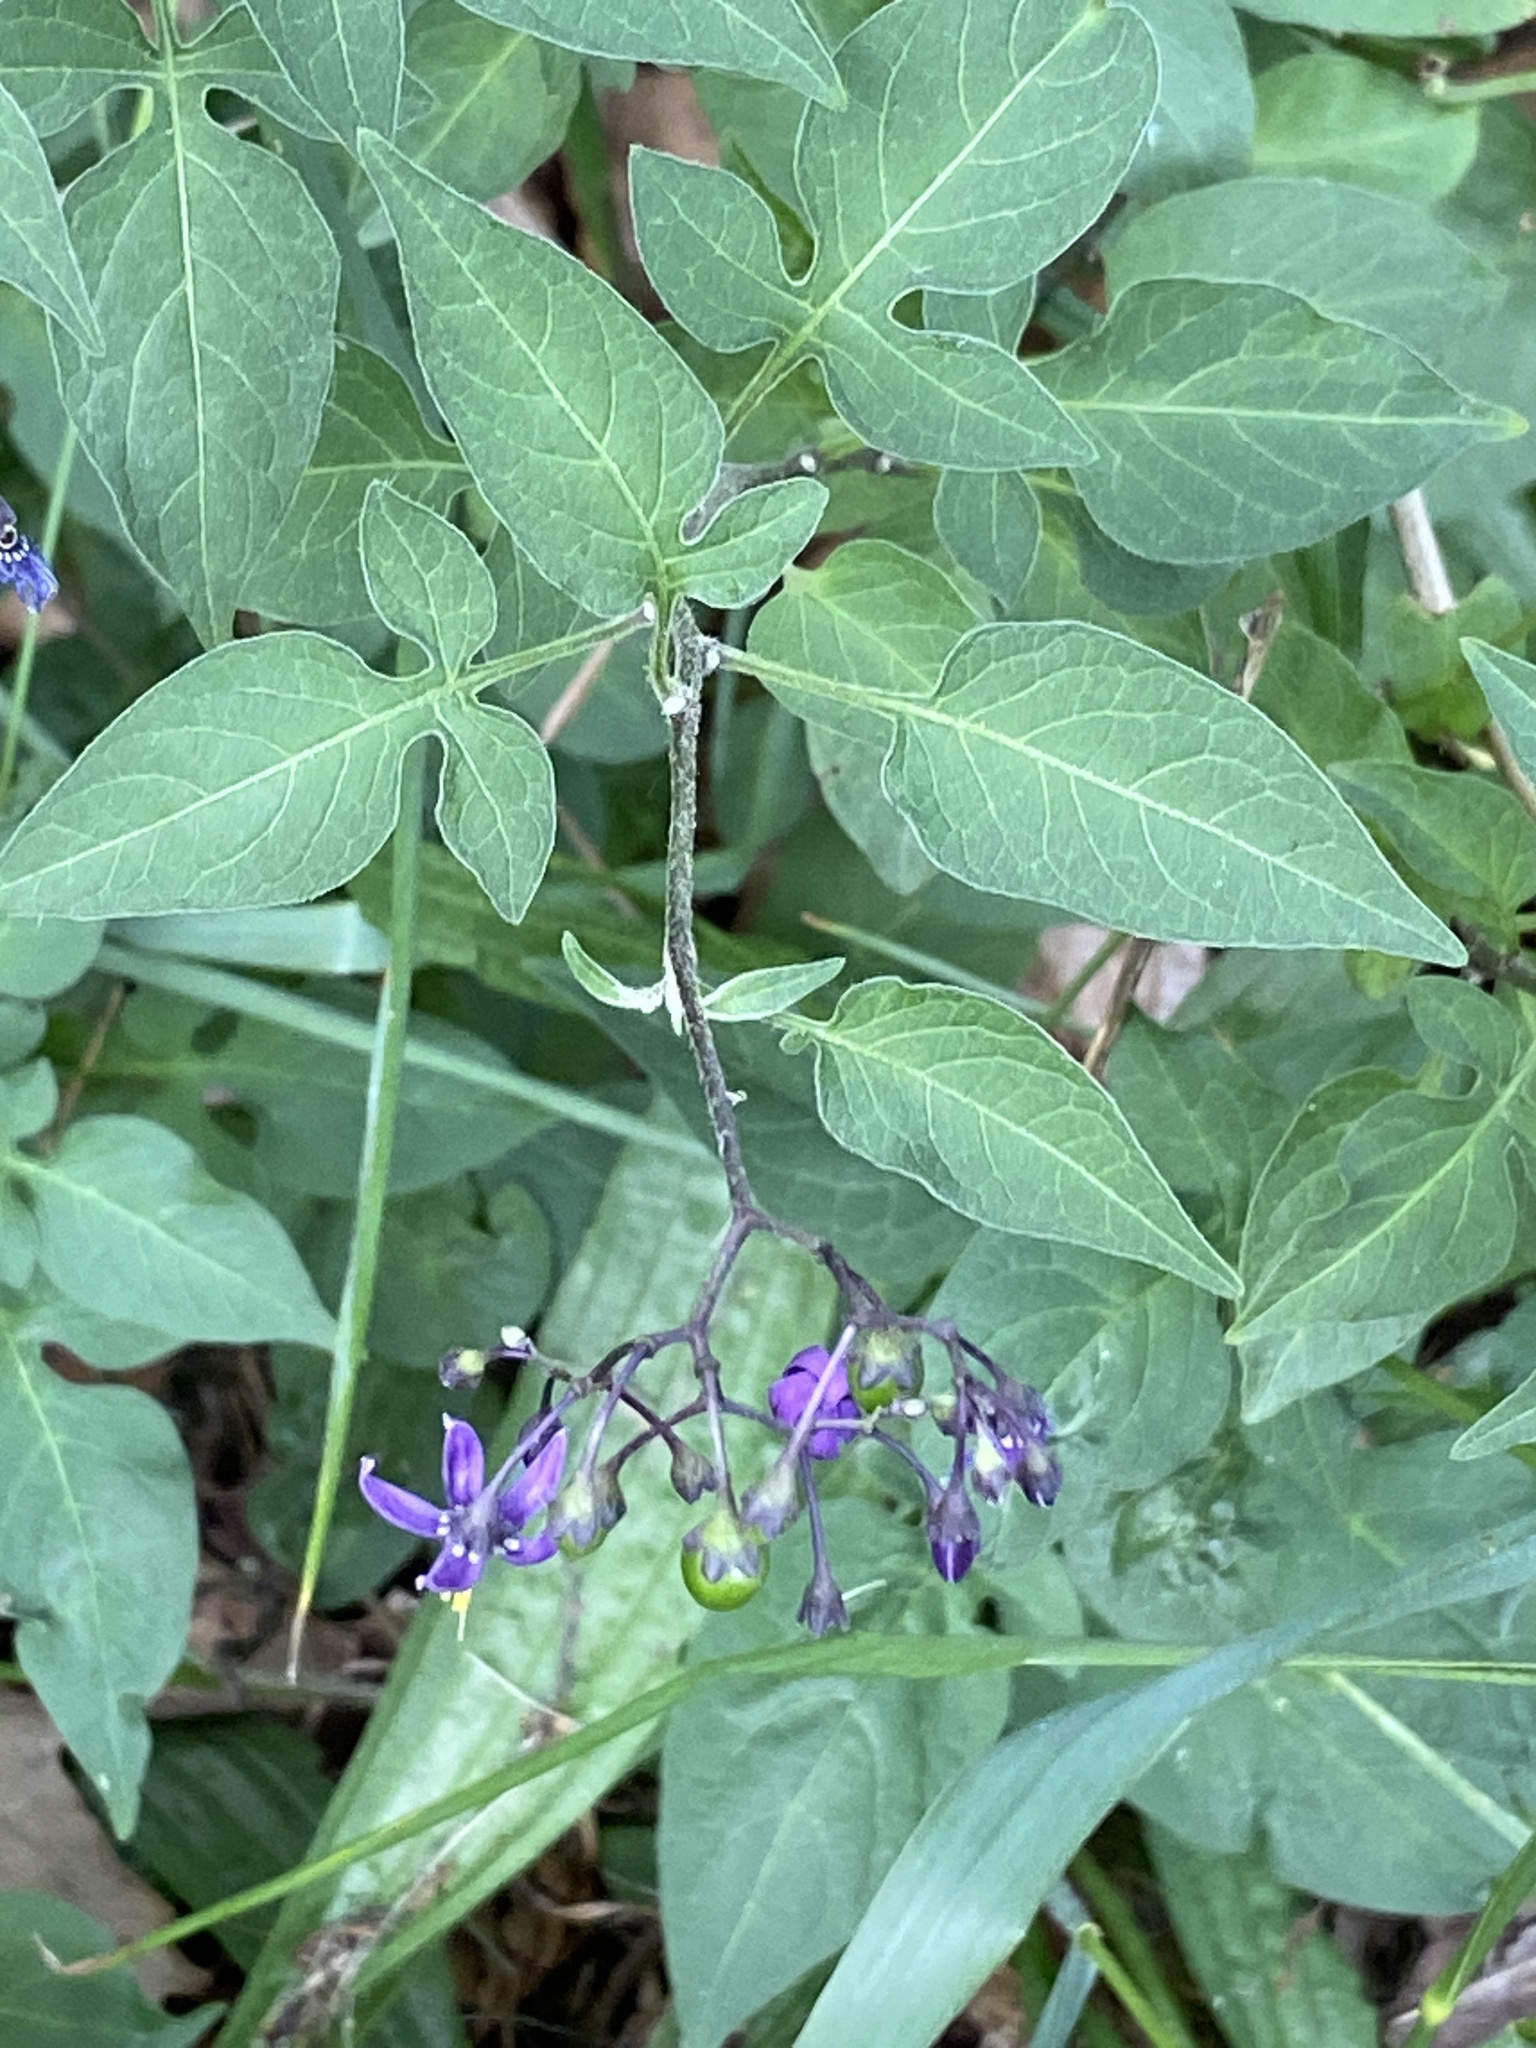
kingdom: Plantae
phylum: Tracheophyta
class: Magnoliopsida
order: Solanales
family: Solanaceae
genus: Solanum
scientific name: Solanum dulcamara
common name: Climbing nightshade
